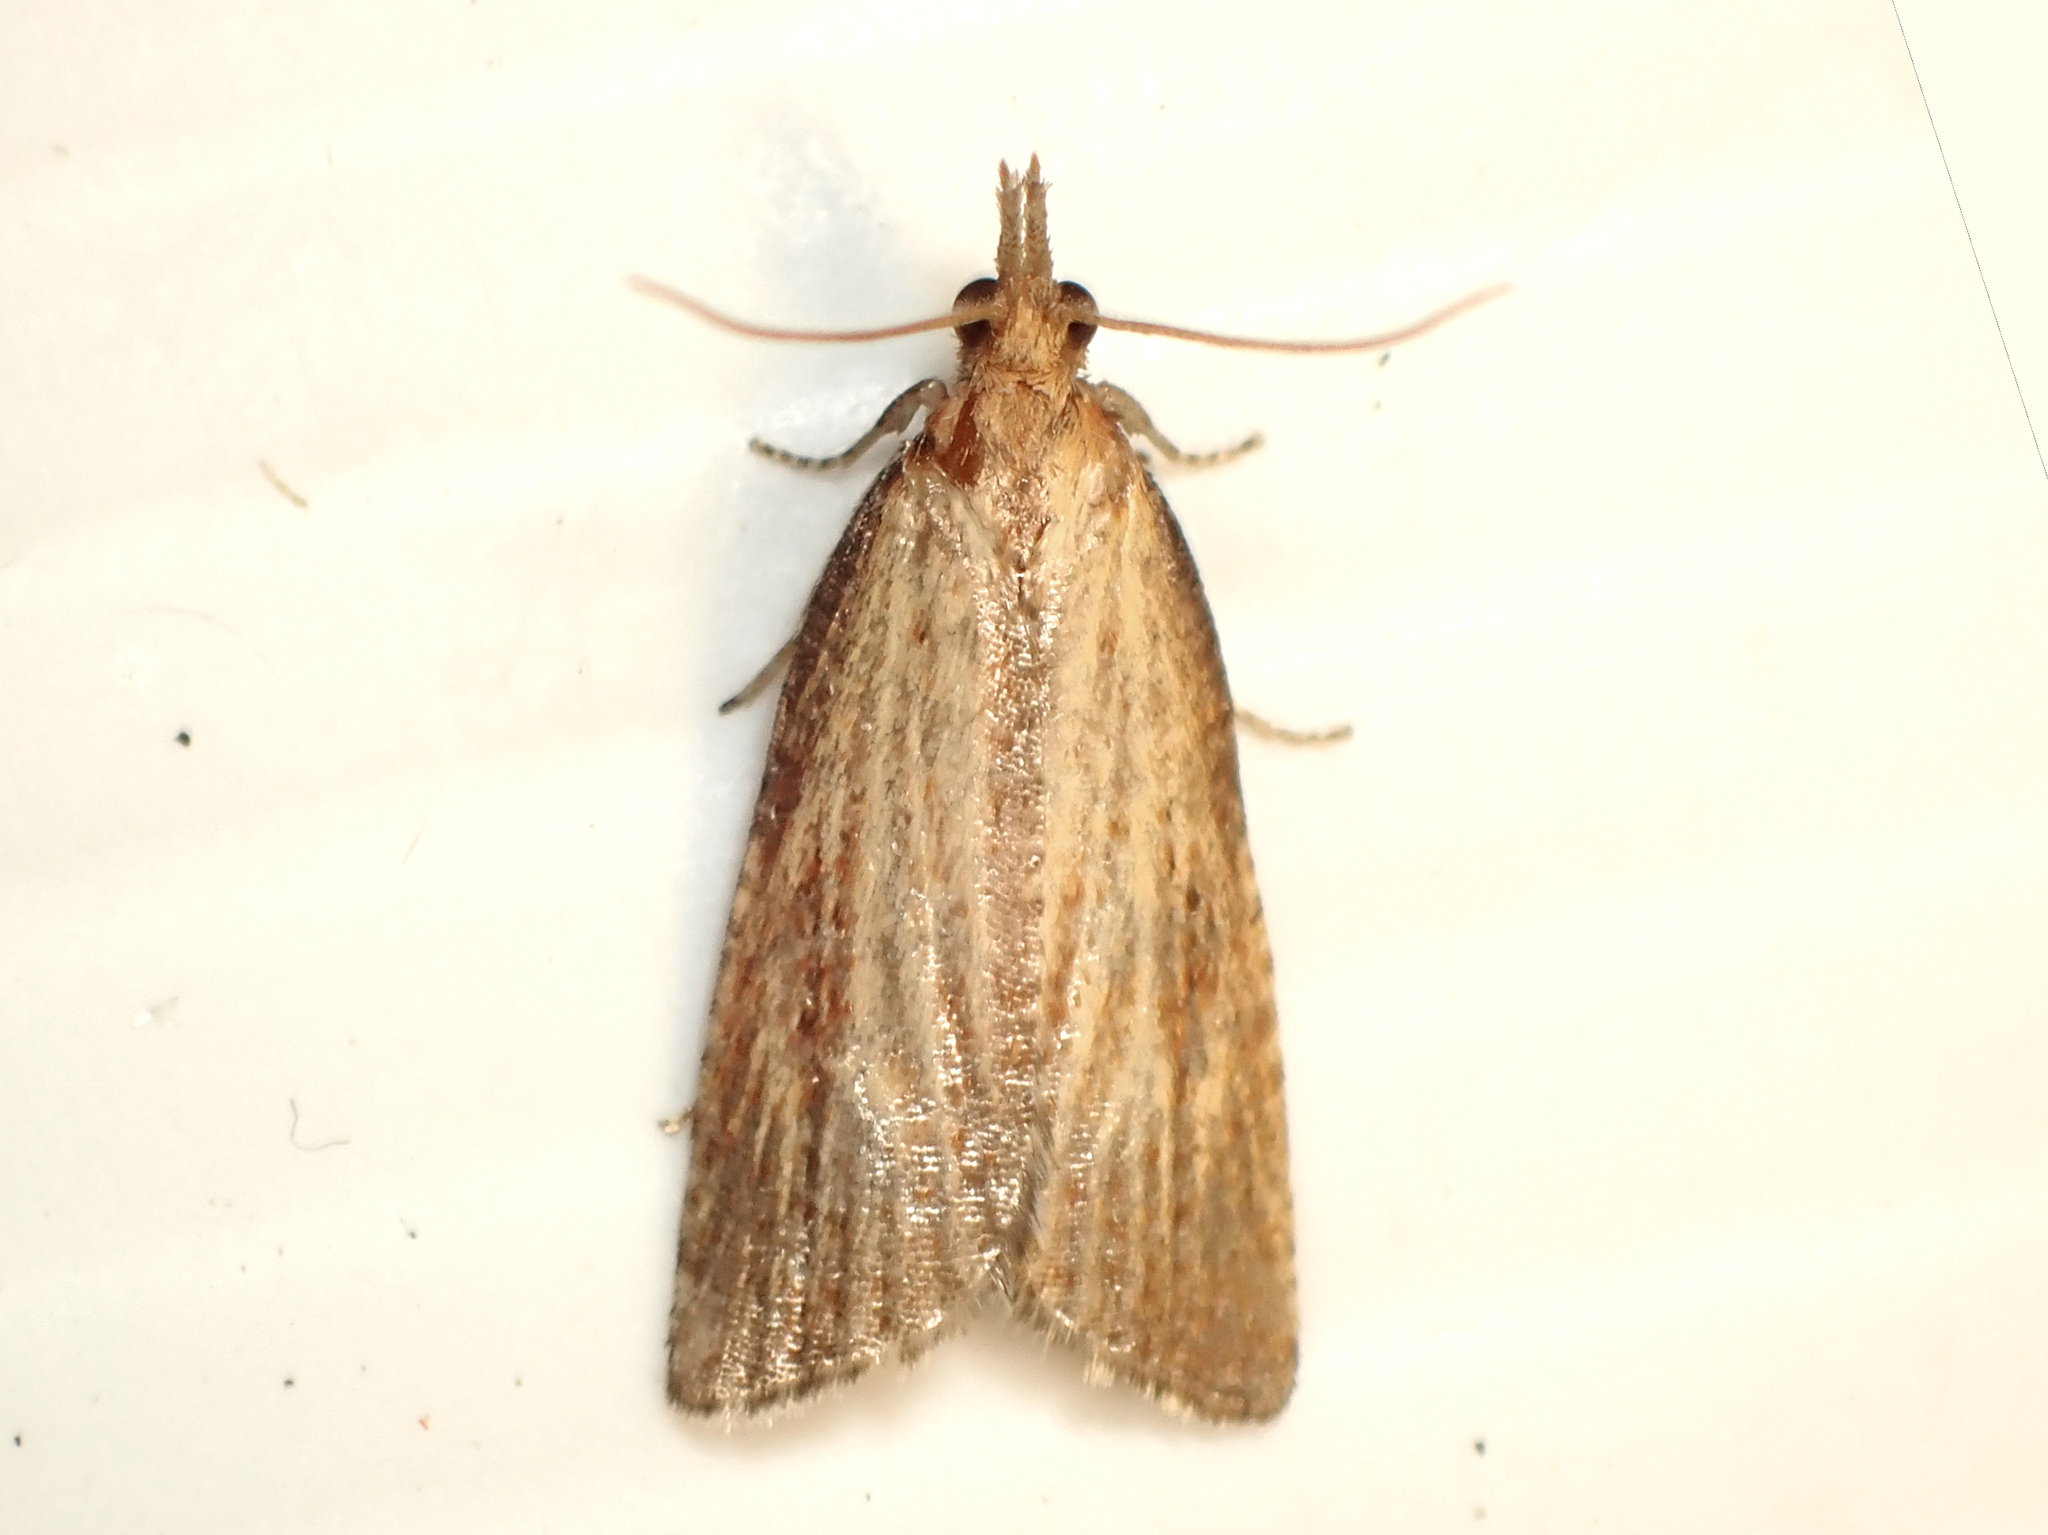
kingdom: Animalia
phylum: Arthropoda
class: Insecta
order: Lepidoptera
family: Tortricidae
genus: Catamacta
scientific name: Catamacta lotinana
